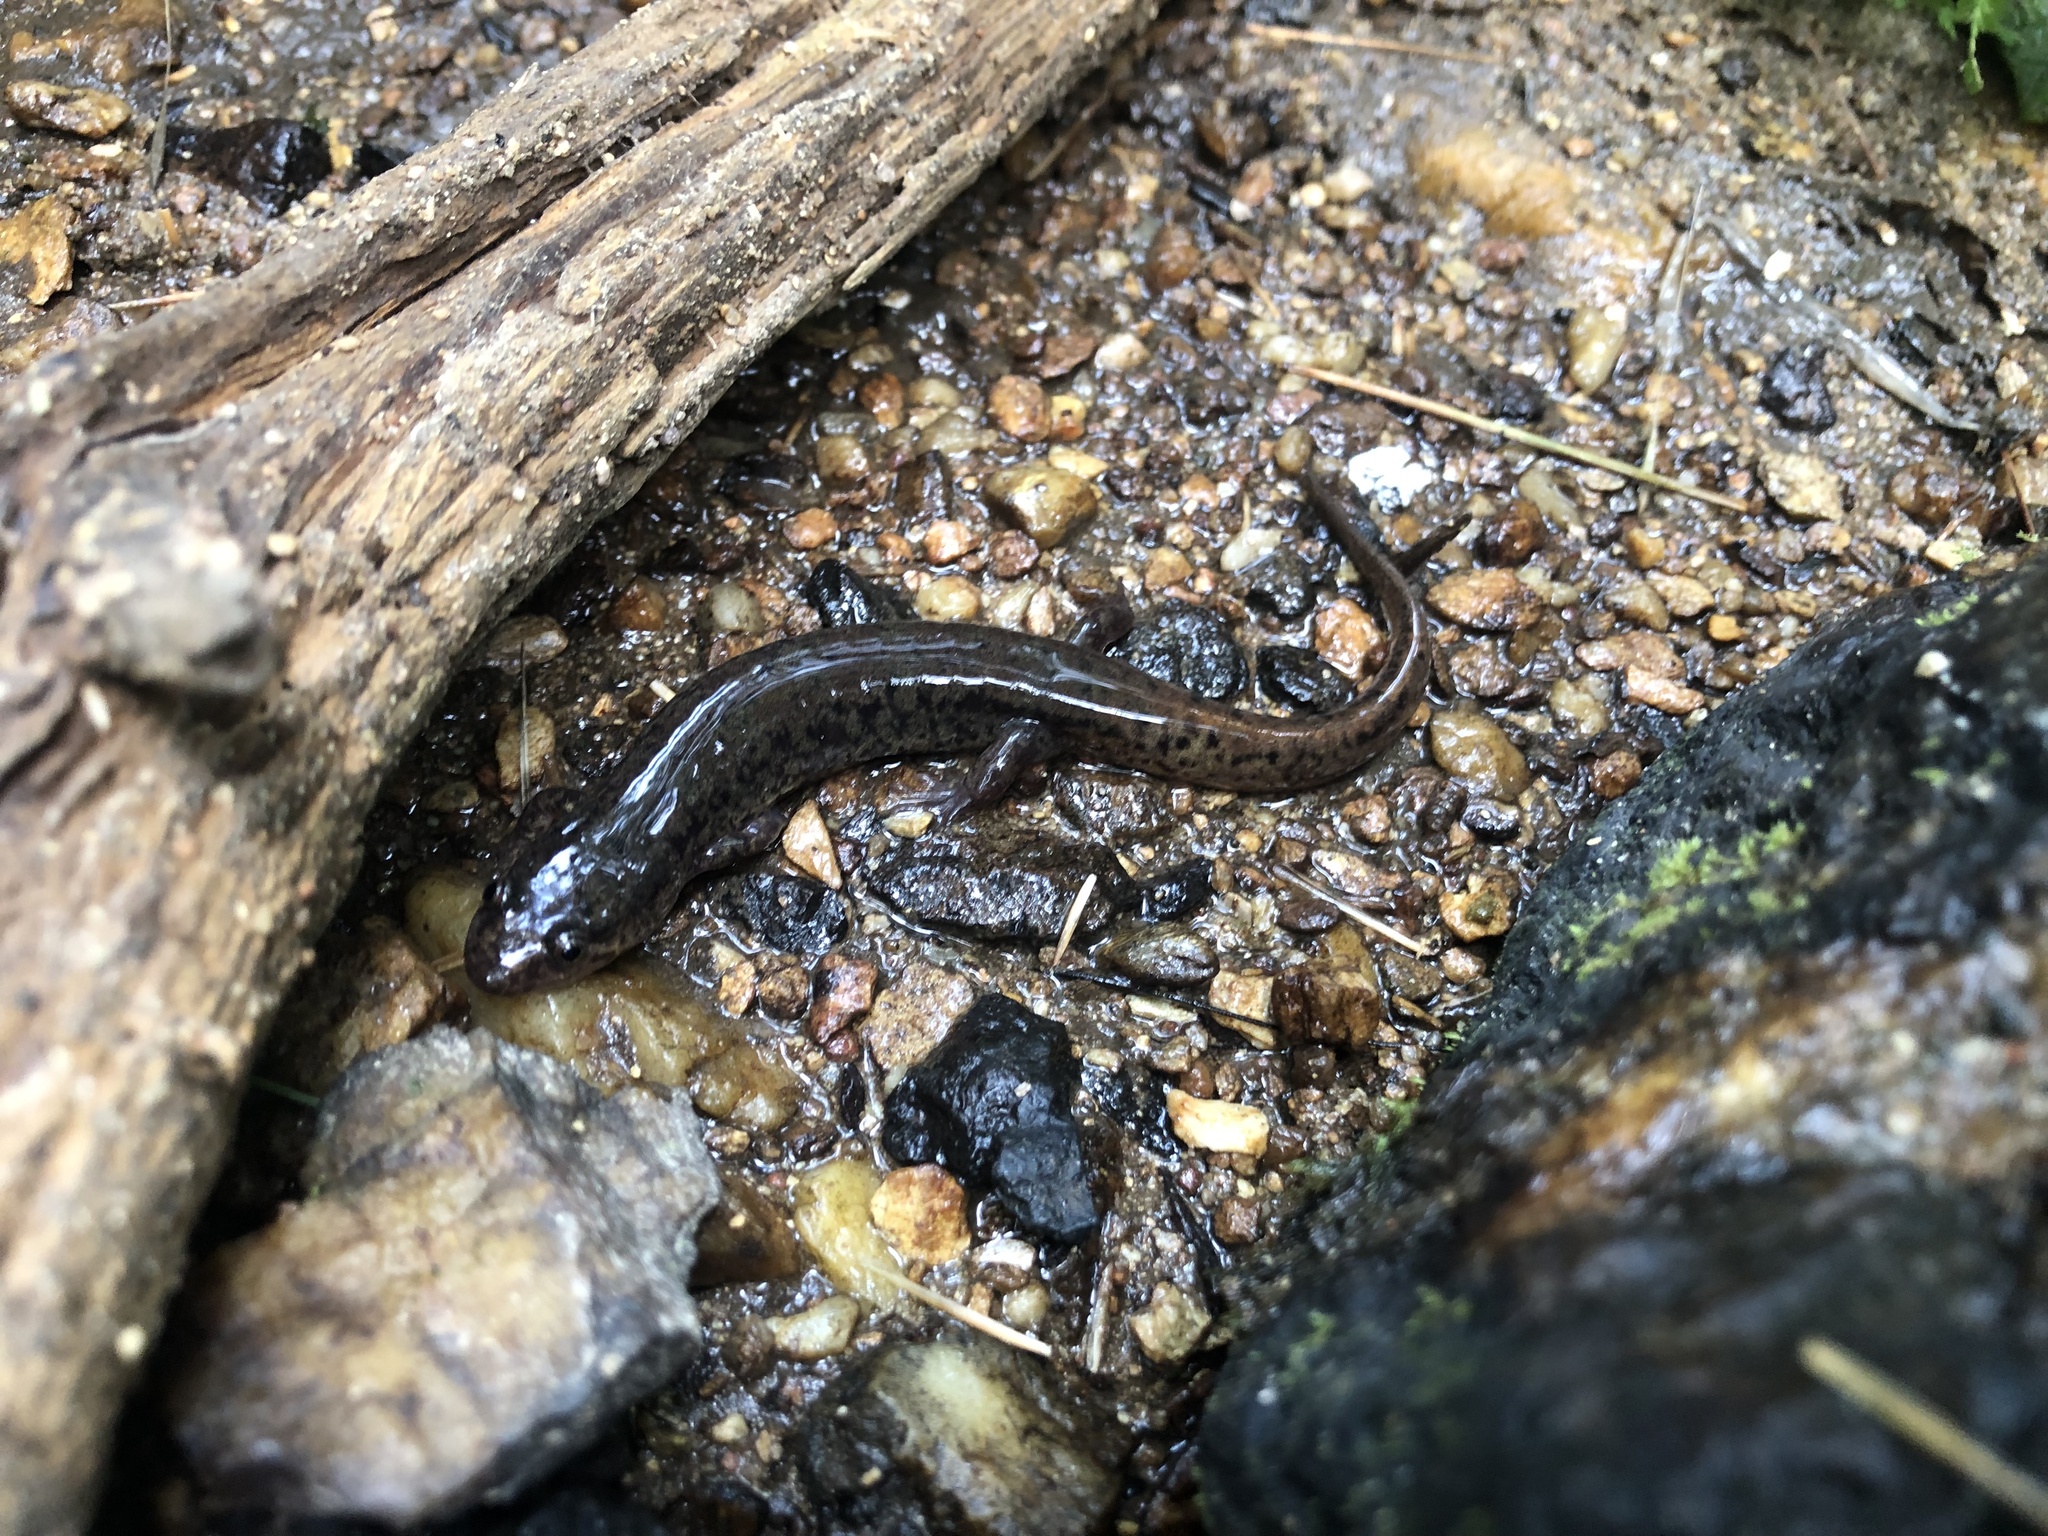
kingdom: Animalia
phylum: Chordata
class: Amphibia
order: Caudata
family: Plethodontidae
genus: Desmognathus
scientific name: Desmognathus fuscus
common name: Northern dusky salamander
